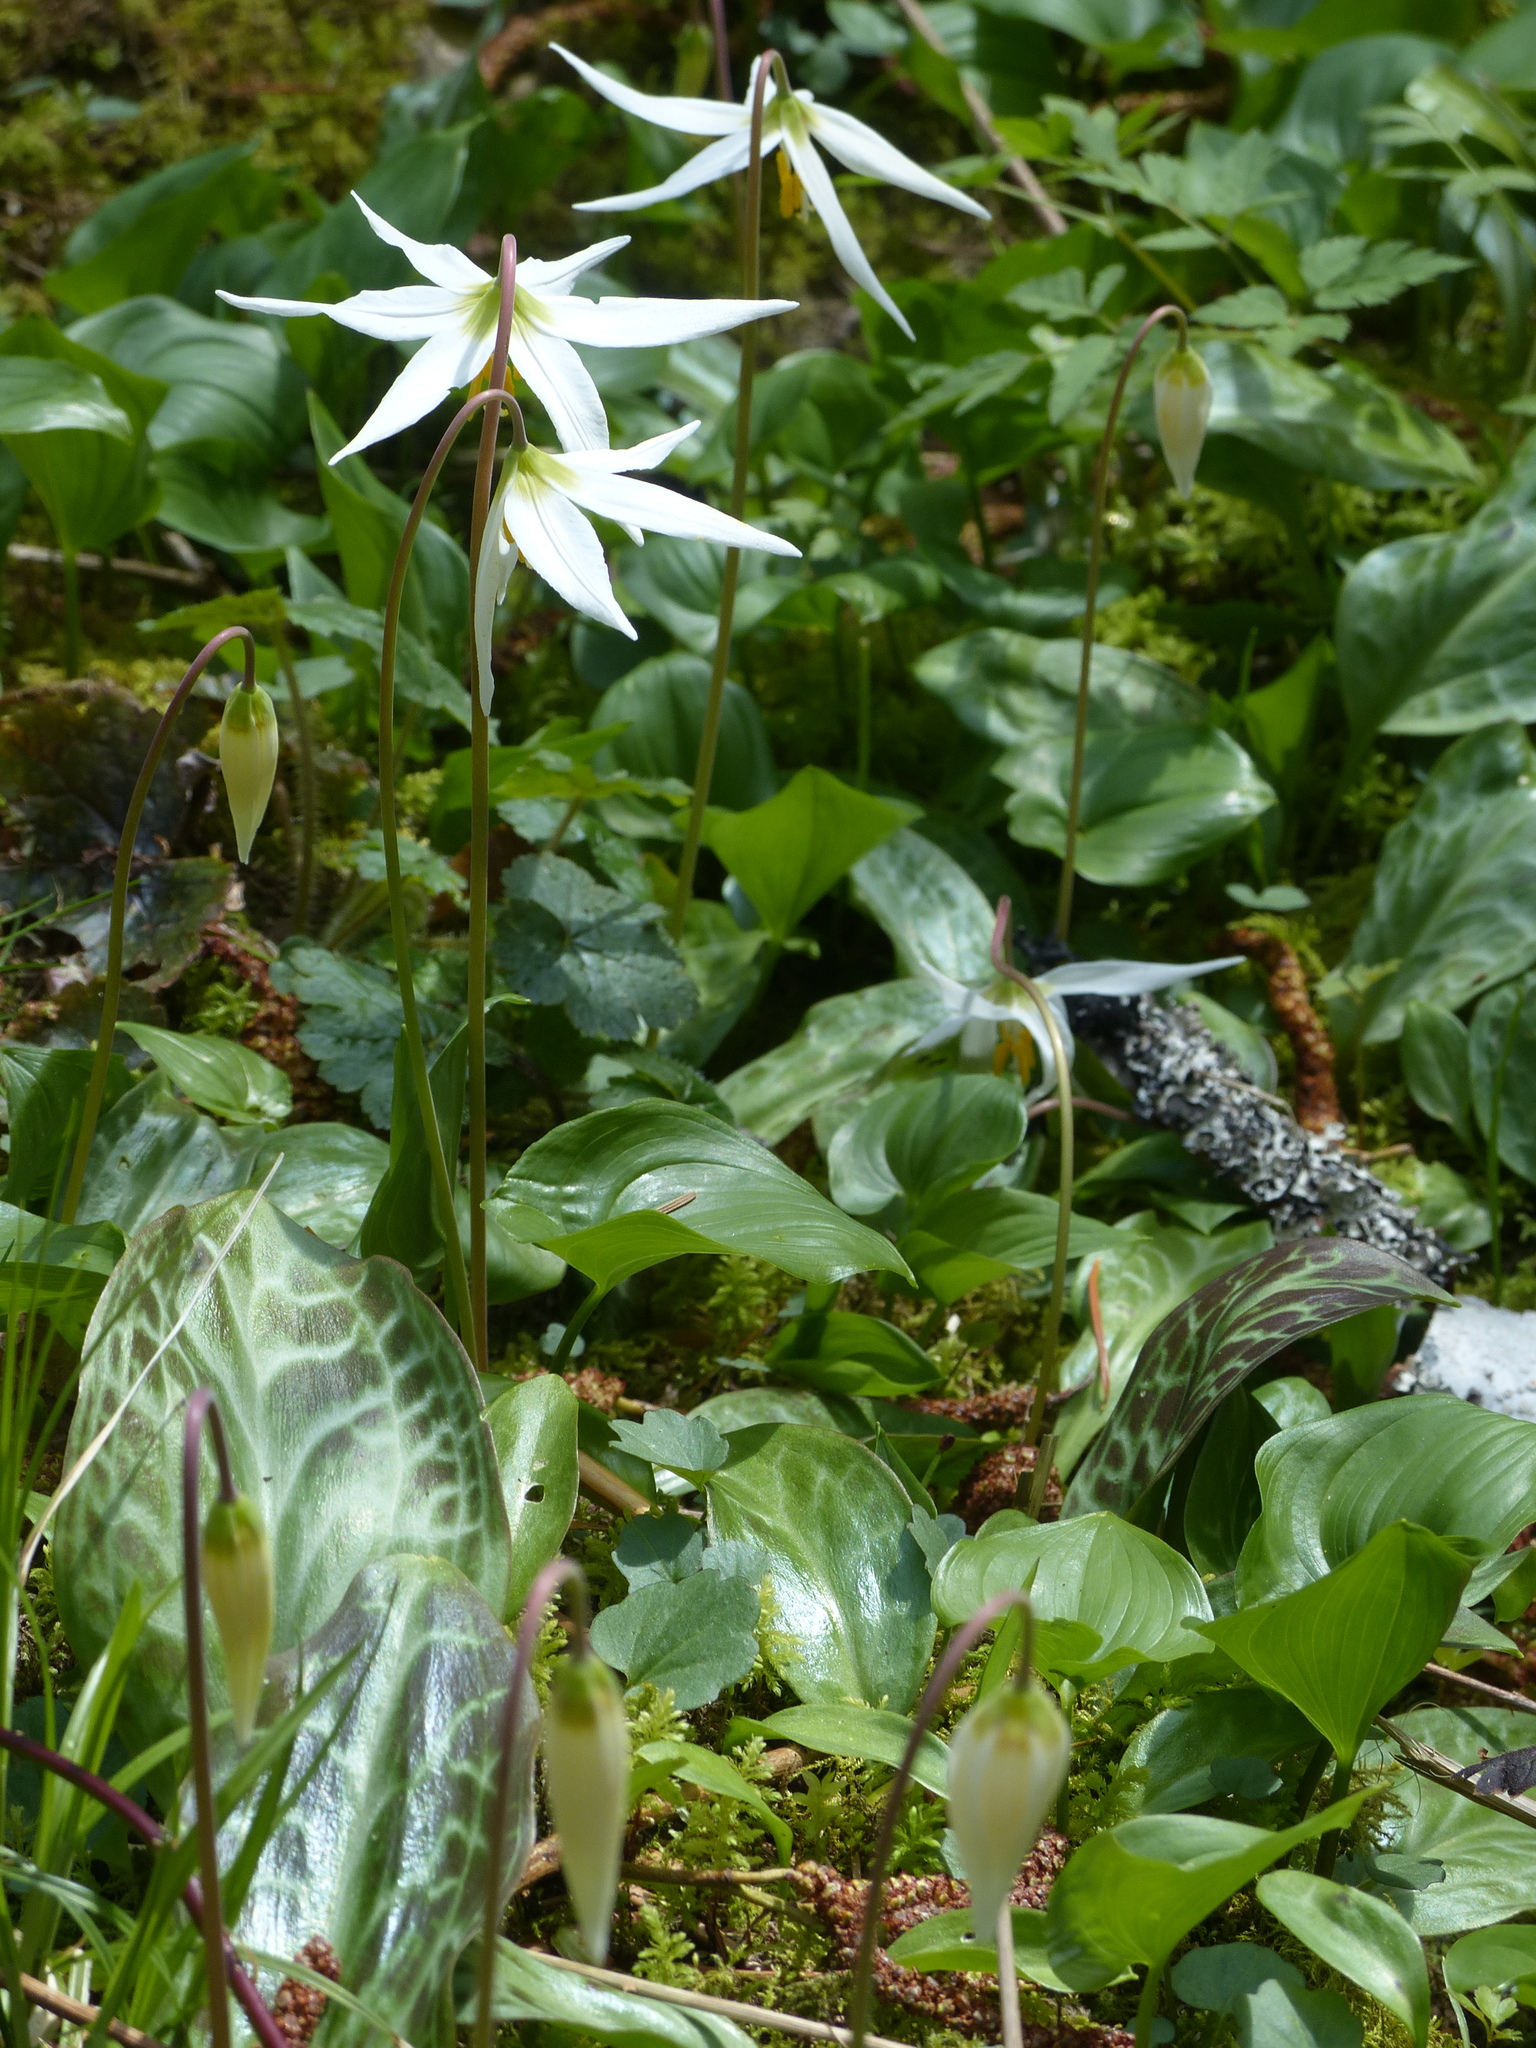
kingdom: Plantae
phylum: Tracheophyta
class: Liliopsida
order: Liliales
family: Liliaceae
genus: Erythronium
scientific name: Erythronium oregonum
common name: Giant adder's-tongue
